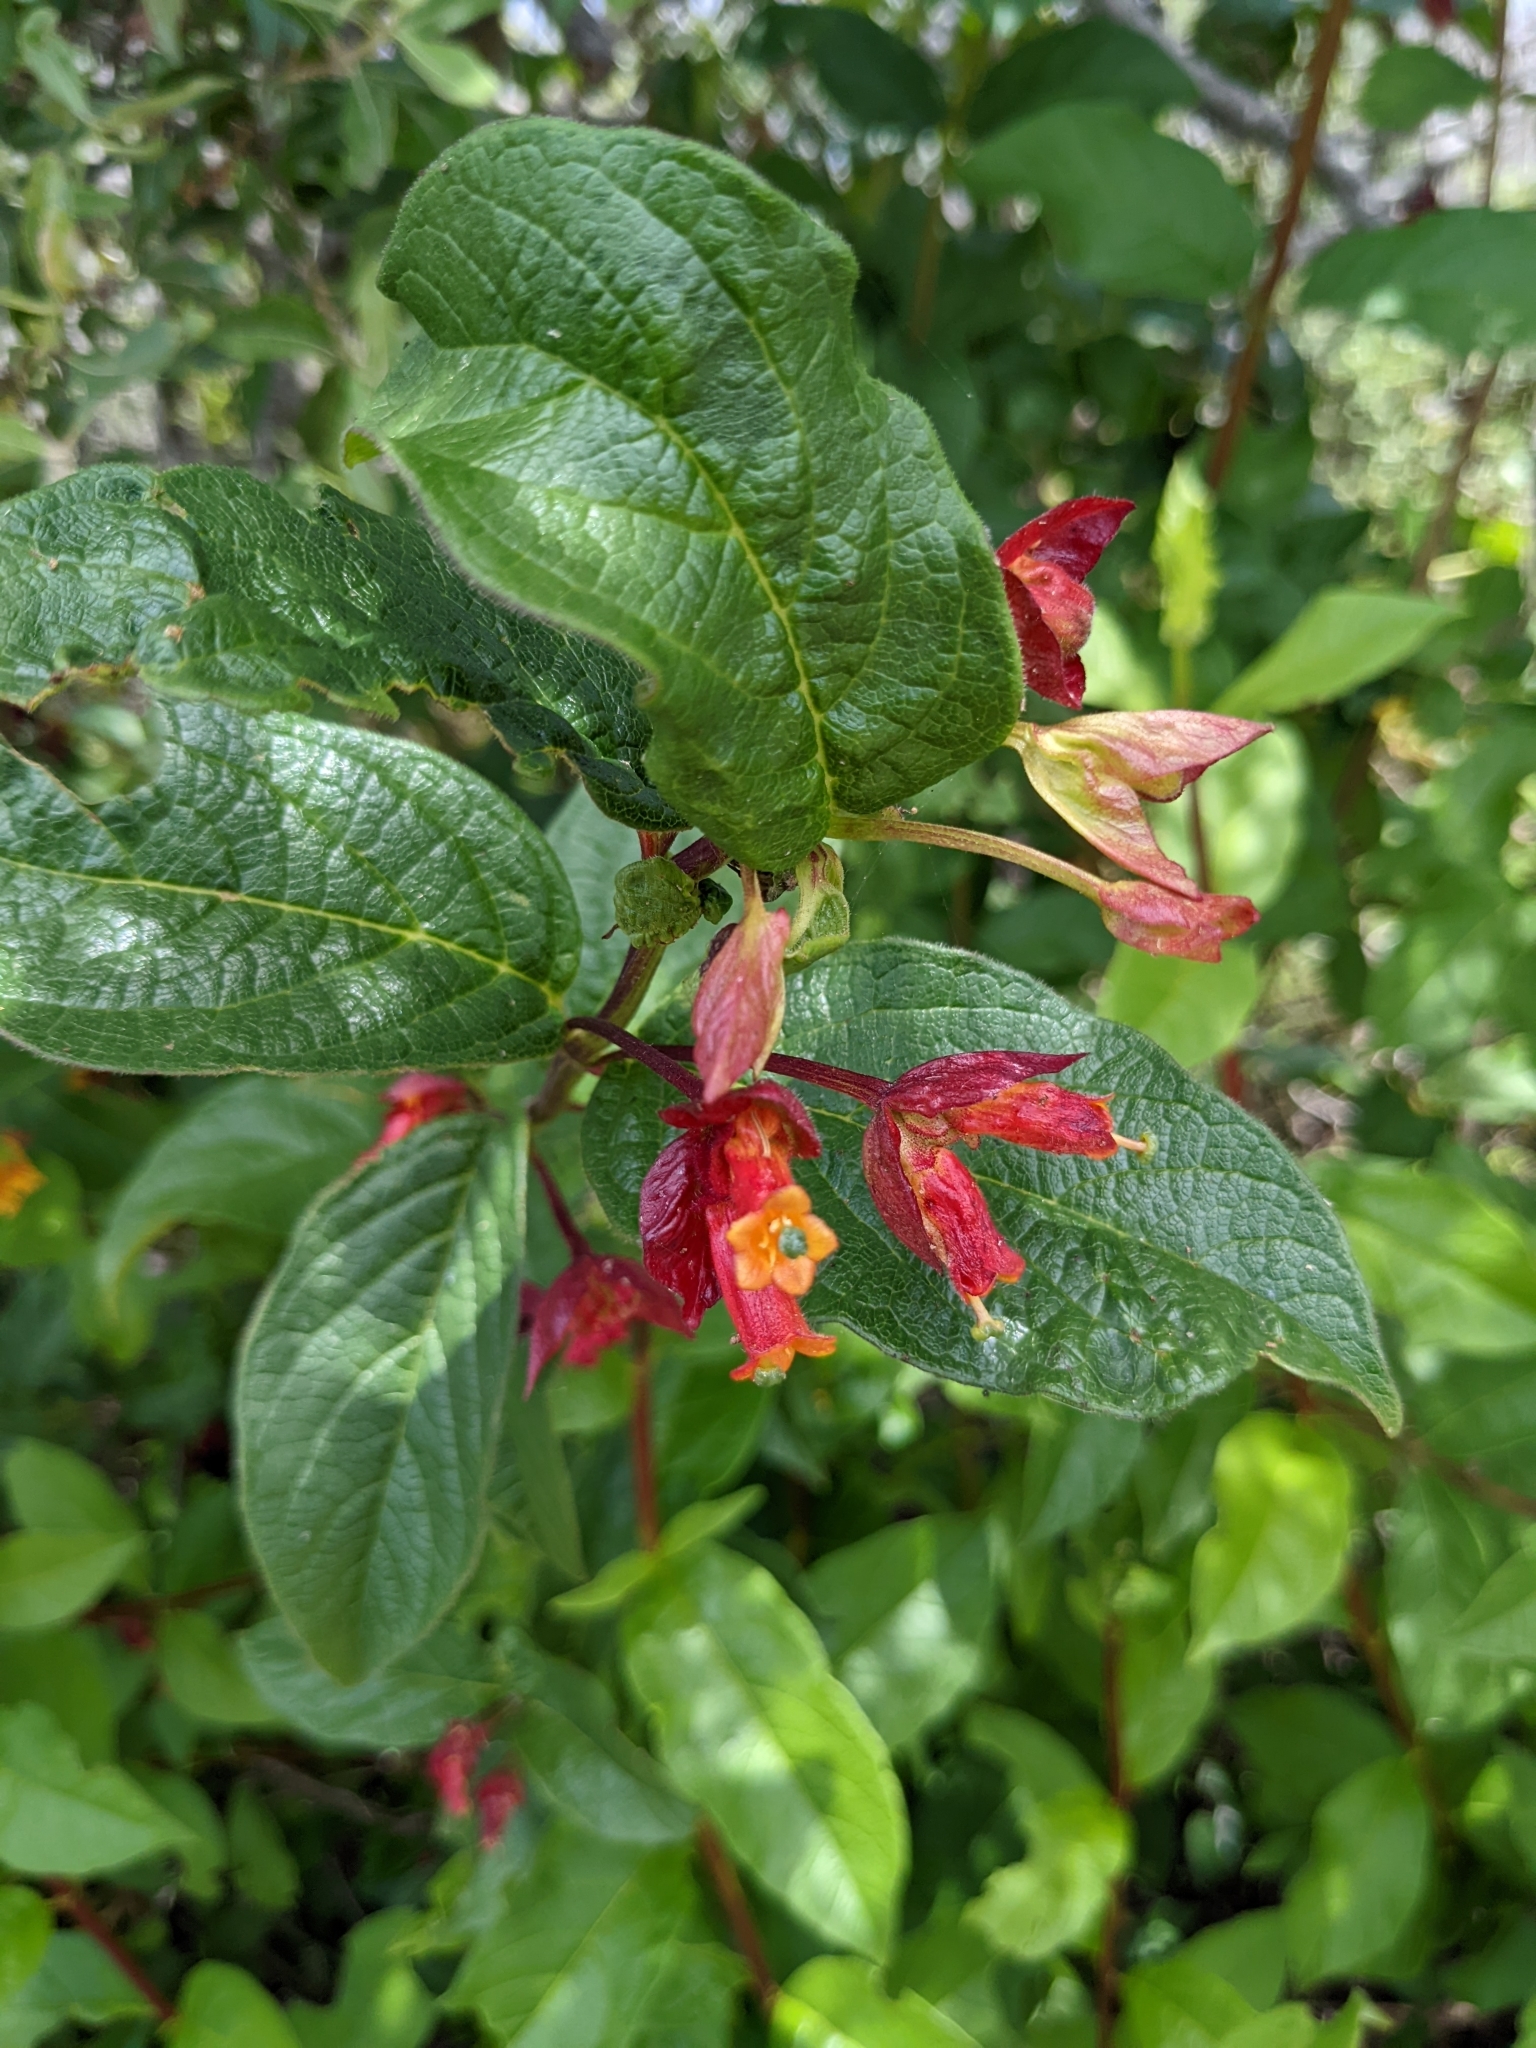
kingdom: Plantae
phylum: Tracheophyta
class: Magnoliopsida
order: Dipsacales
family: Caprifoliaceae
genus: Lonicera
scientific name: Lonicera involucrata
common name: Californian honeysuckle
